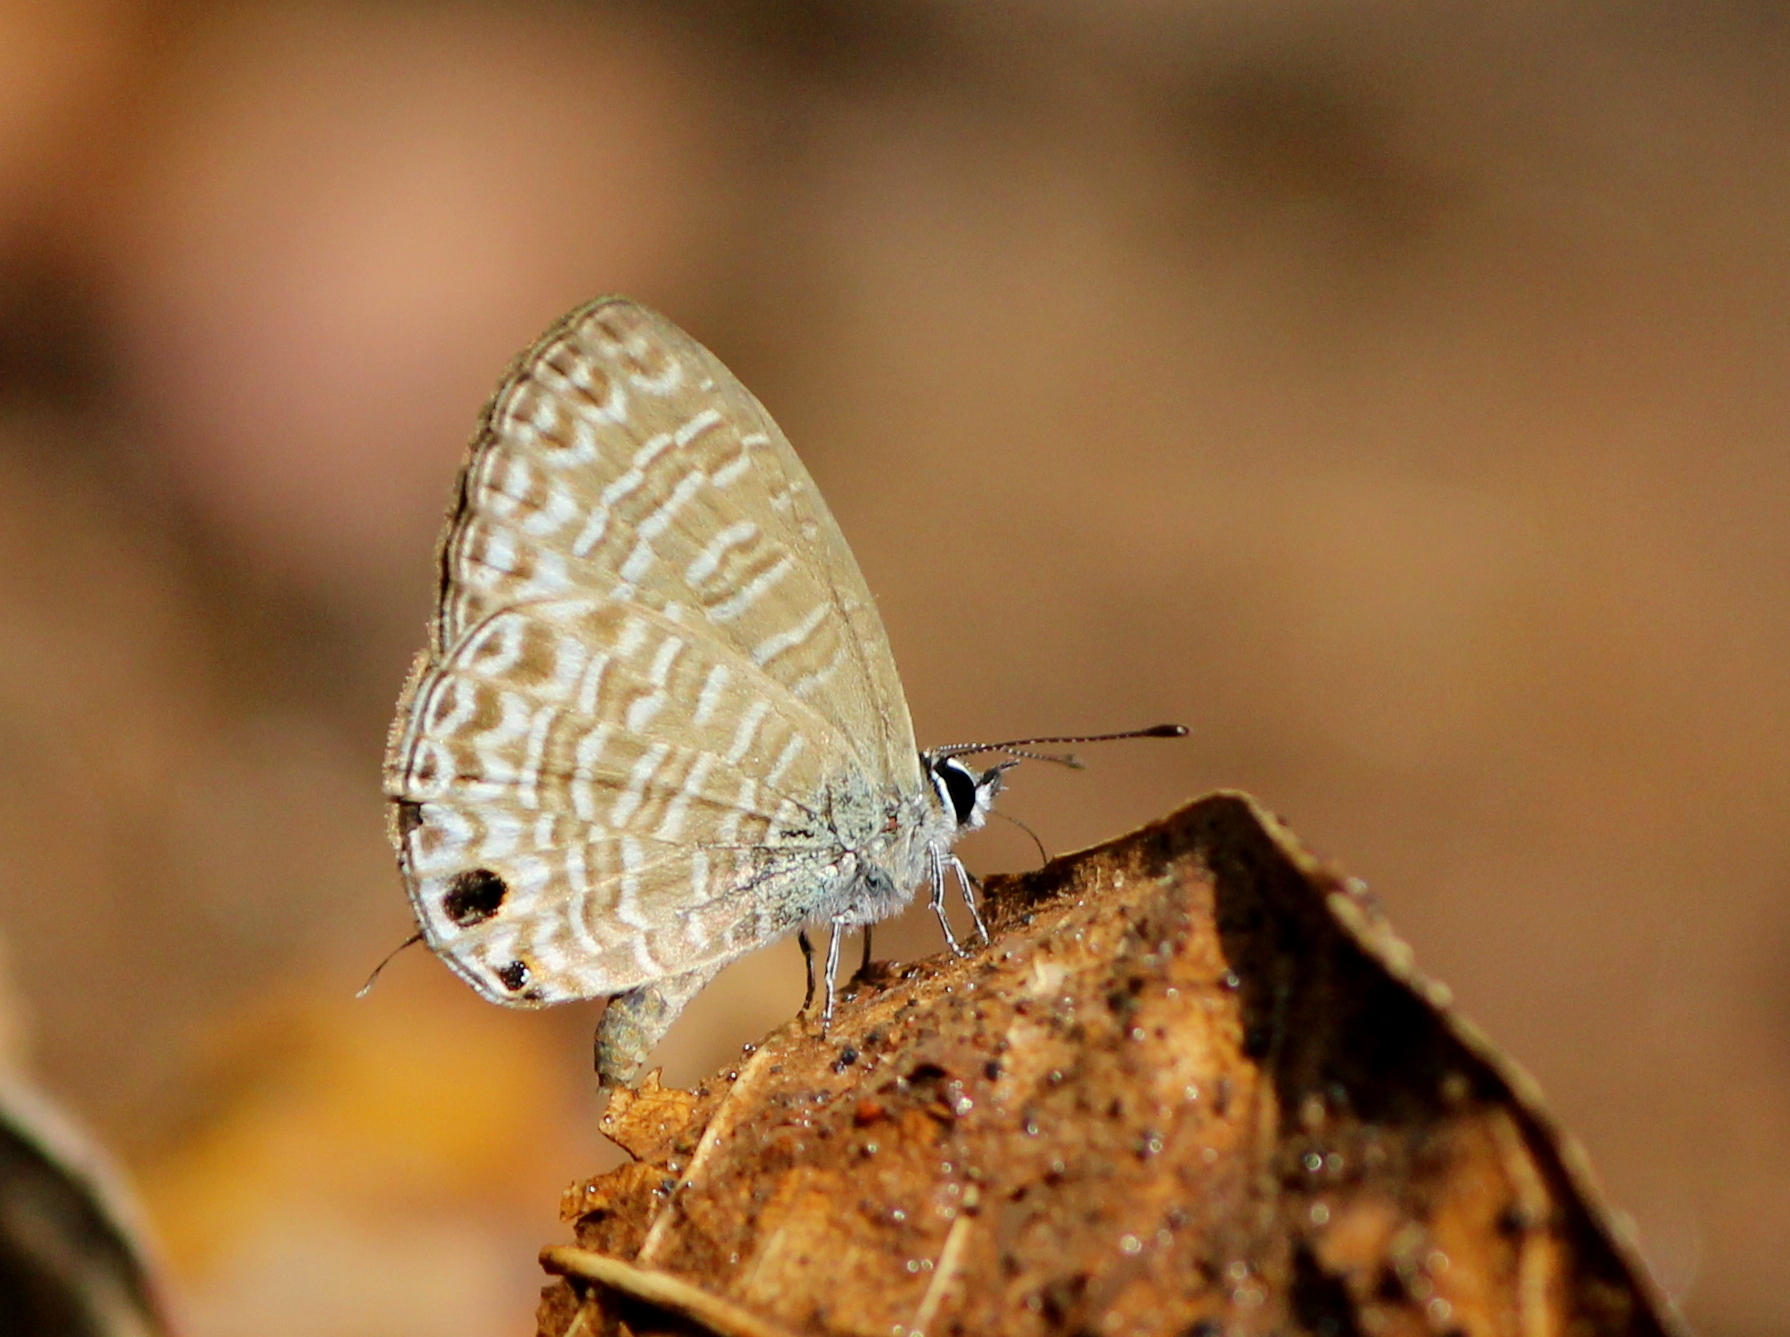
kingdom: Animalia
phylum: Arthropoda
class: Insecta
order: Lepidoptera
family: Lycaenidae
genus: Nacaduba
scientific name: Nacaduba sinhala
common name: Pale ceylon line blue
